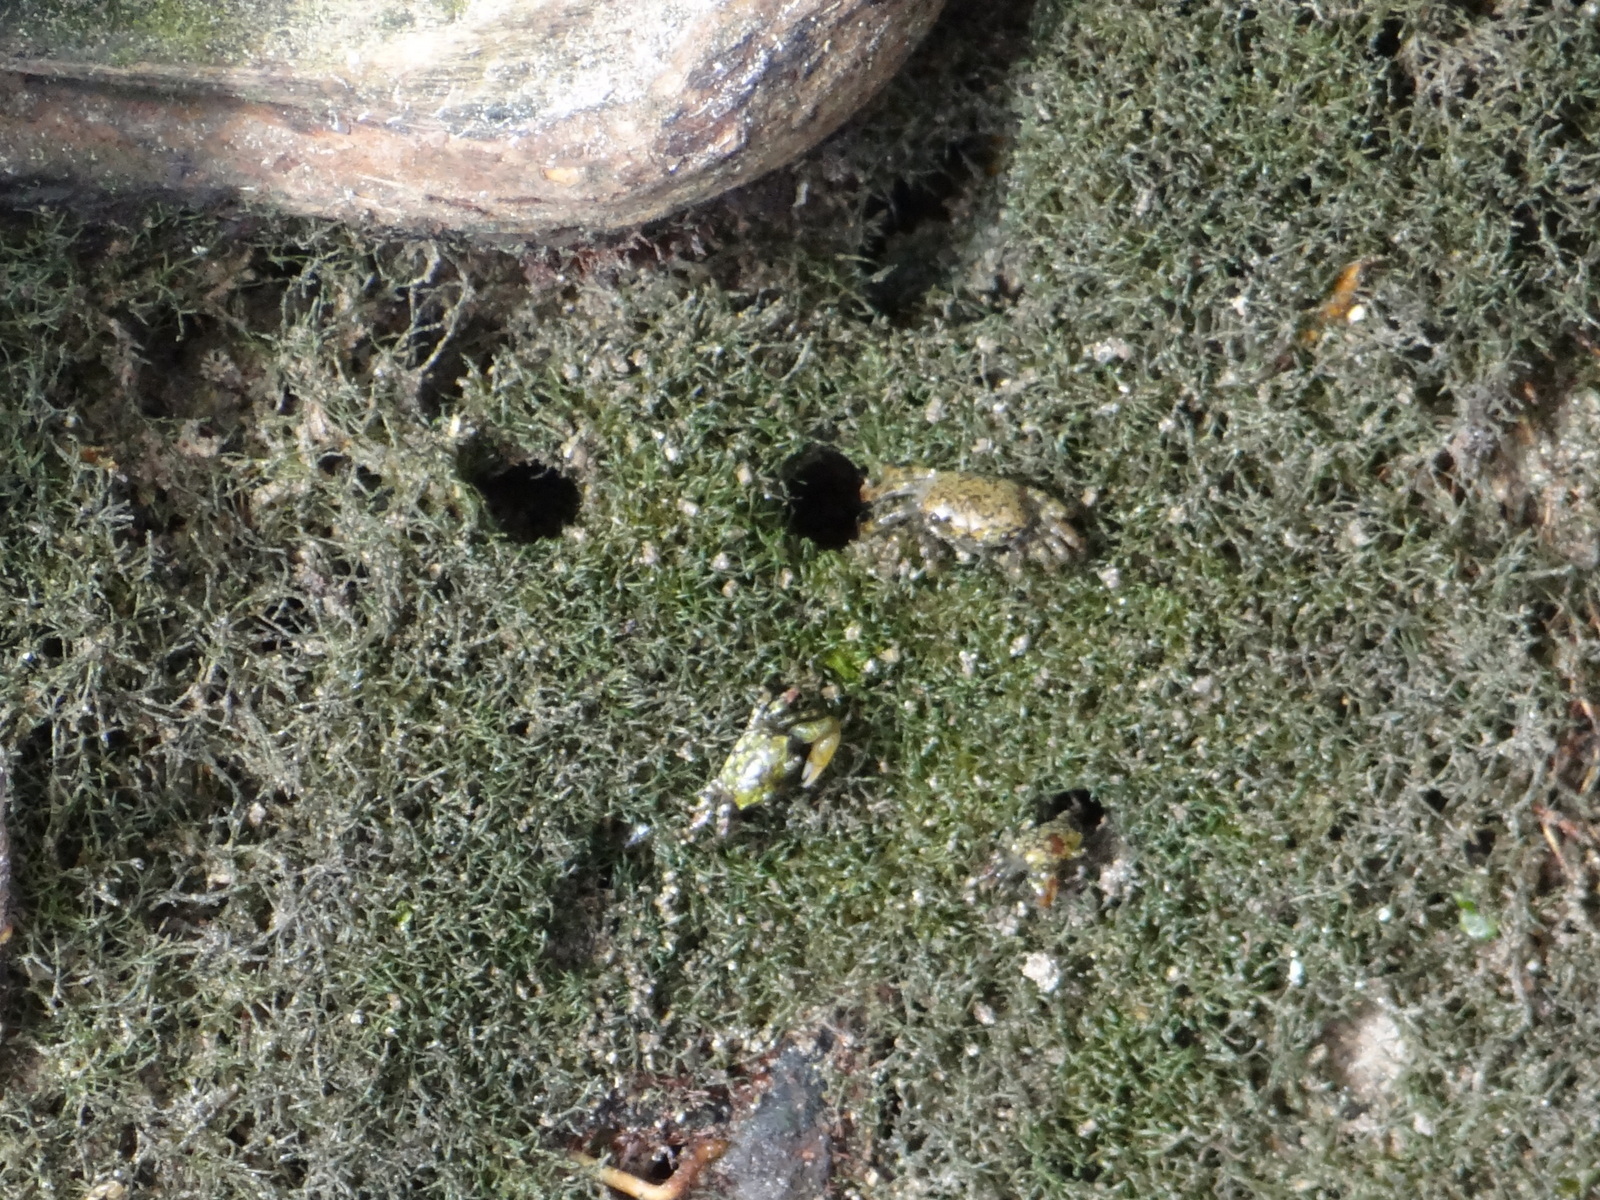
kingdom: Animalia
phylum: Arthropoda
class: Malacostraca
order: Decapoda
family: Ocypodidae
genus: Minuca
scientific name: Minuca galapagensis
